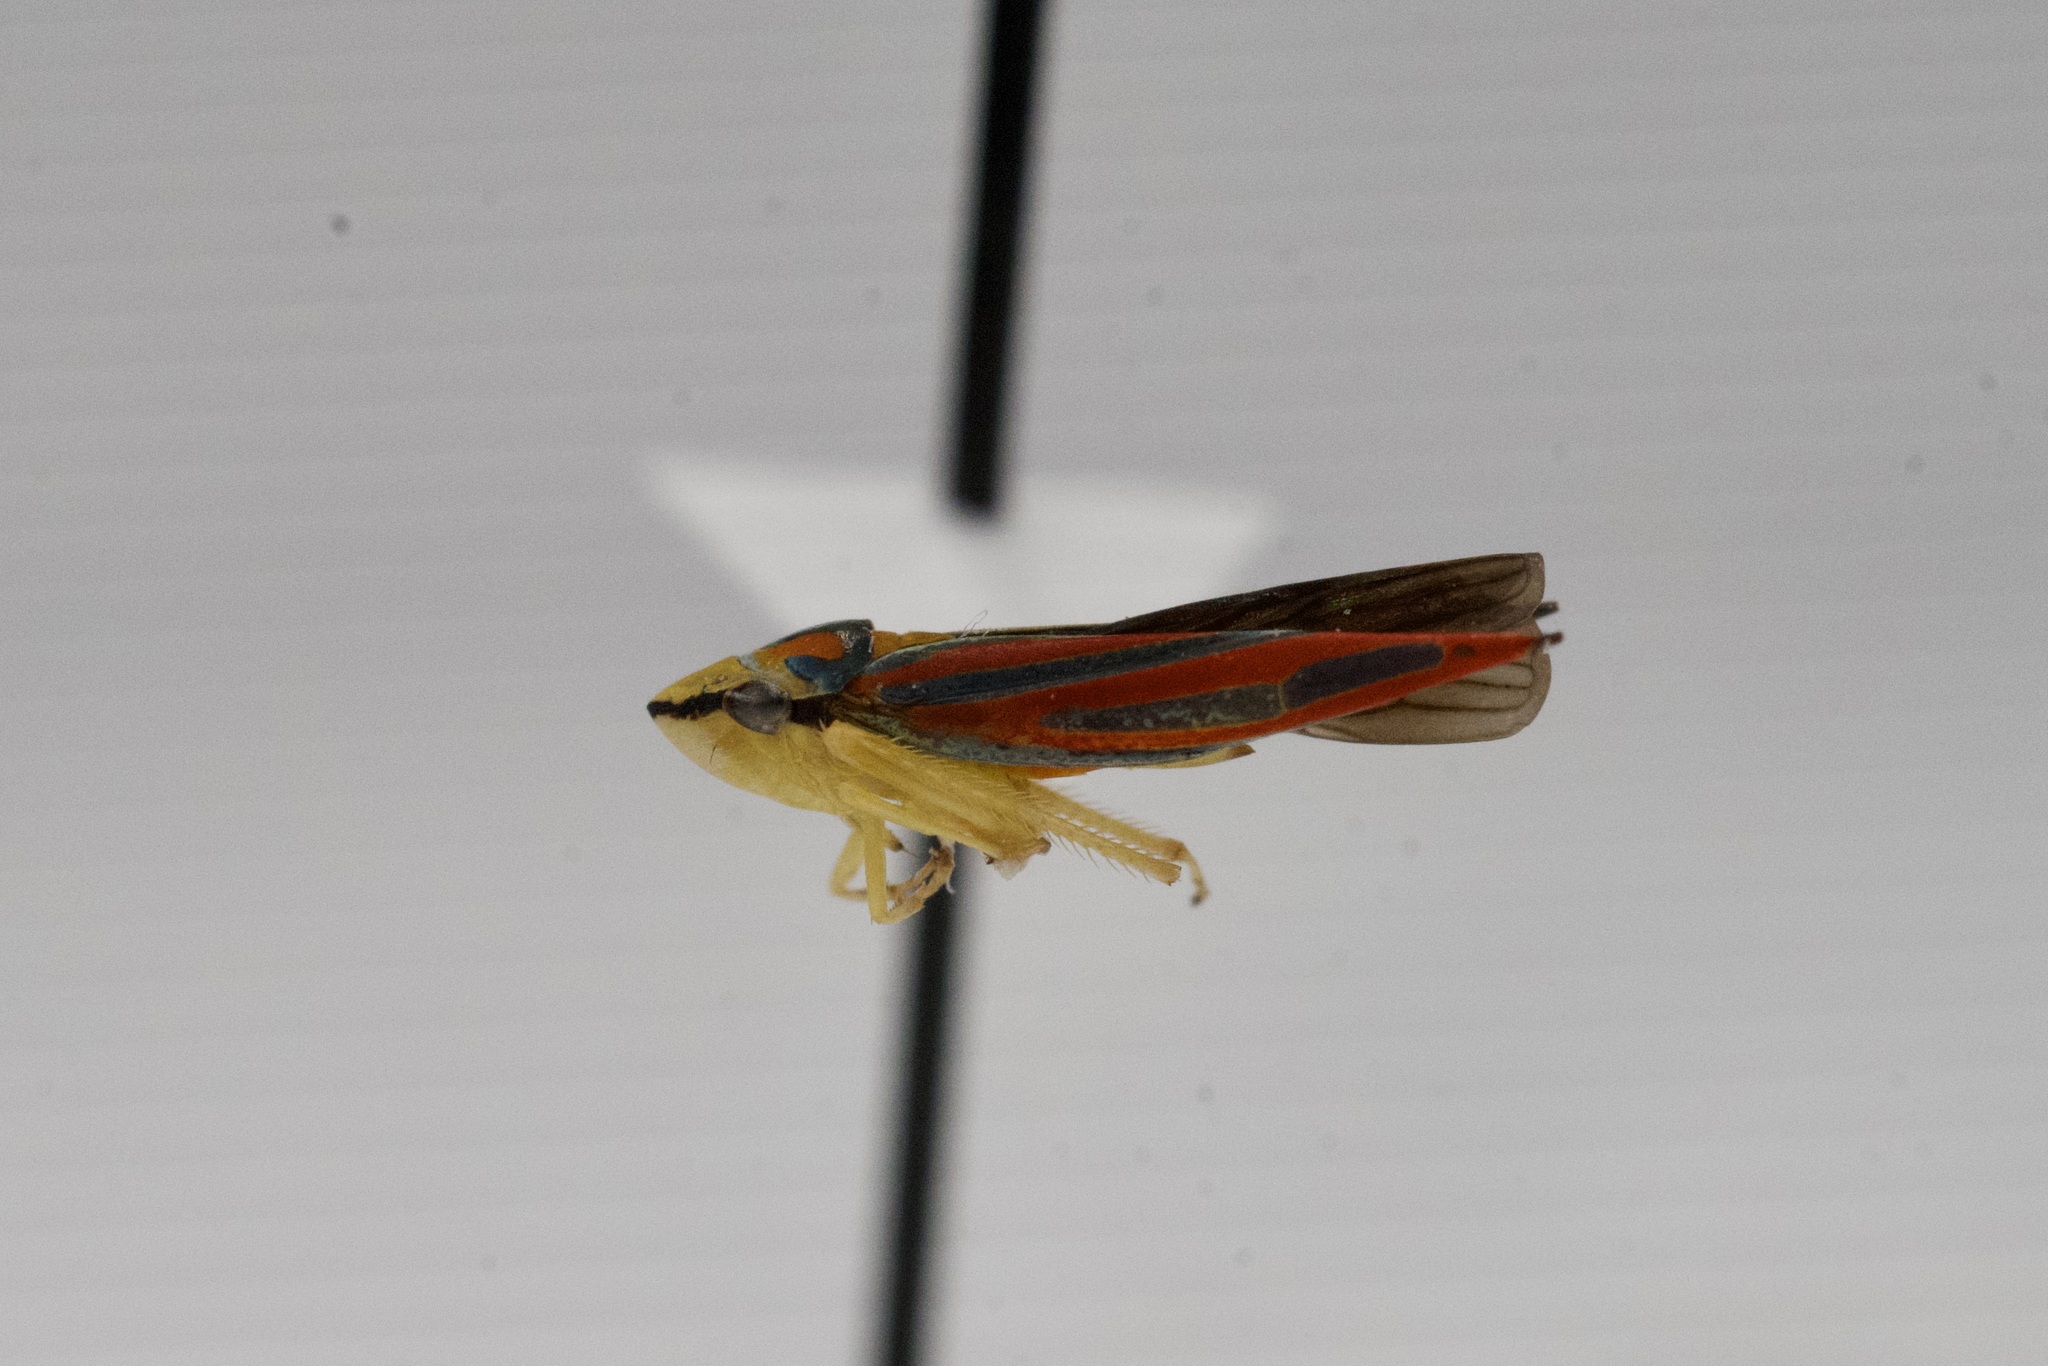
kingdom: Animalia
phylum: Arthropoda
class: Insecta
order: Hemiptera
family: Cicadellidae
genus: Graphocephala
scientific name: Graphocephala coccinea
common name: Candy-striped leafhopper
